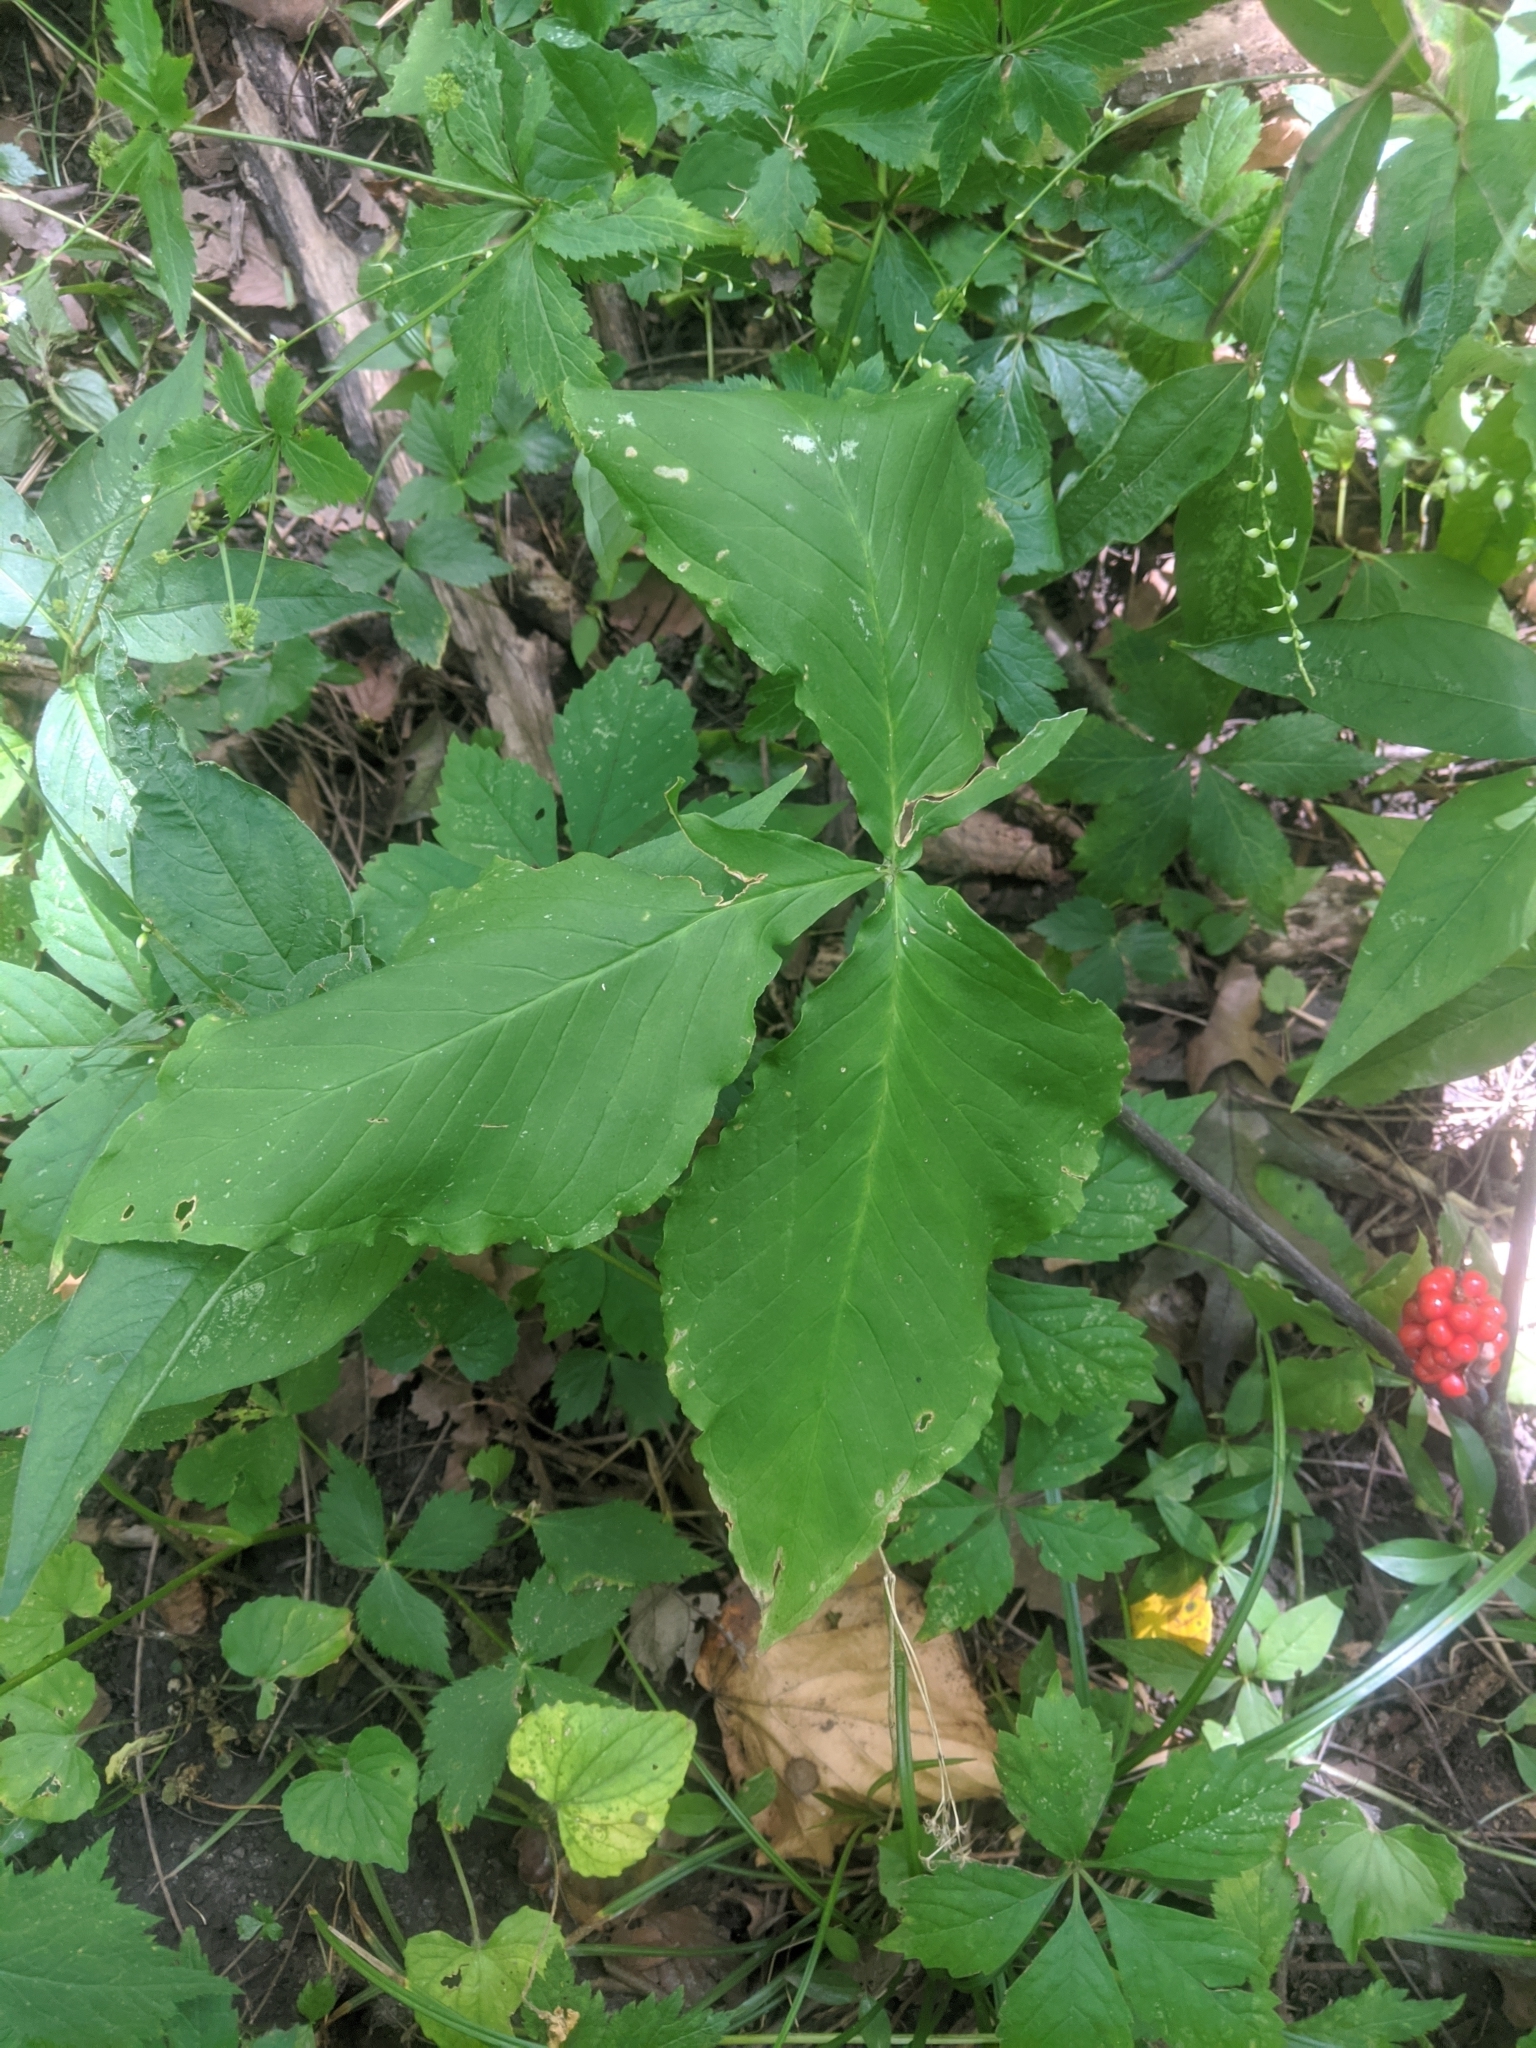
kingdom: Plantae
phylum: Tracheophyta
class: Liliopsida
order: Alismatales
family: Araceae
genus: Arisaema
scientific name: Arisaema triphyllum
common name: Jack-in-the-pulpit
